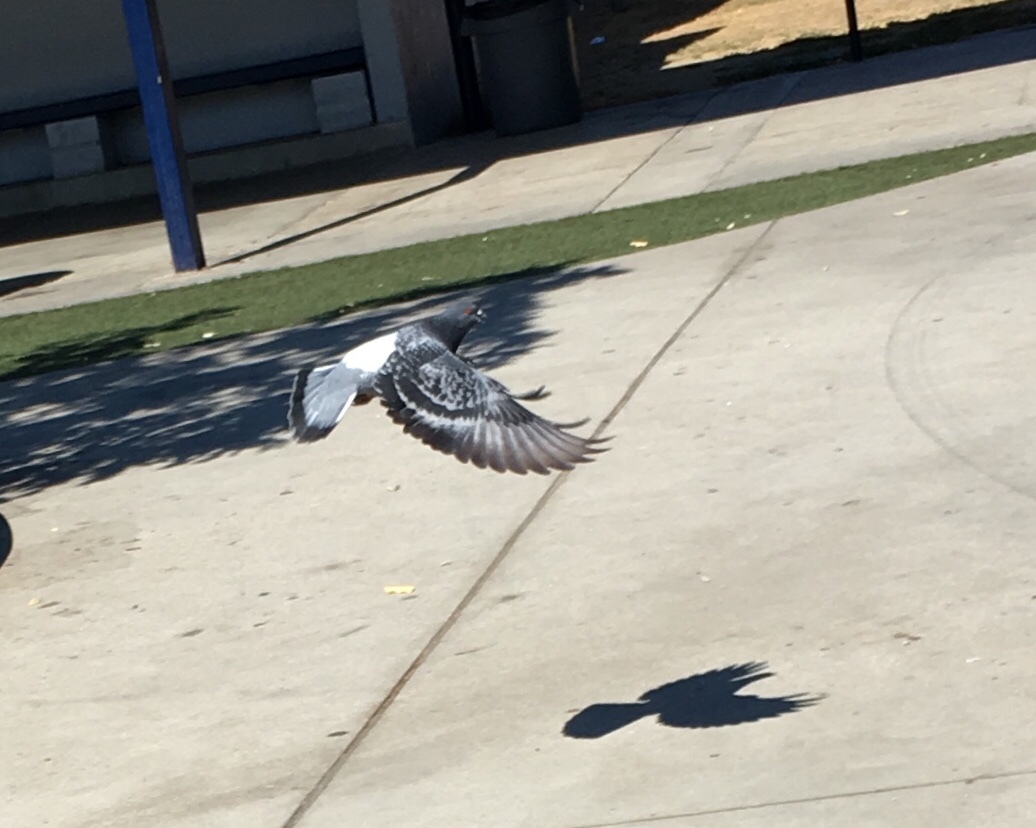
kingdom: Animalia
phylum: Chordata
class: Aves
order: Columbiformes
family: Columbidae
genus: Columba
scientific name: Columba livia
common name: Rock pigeon
